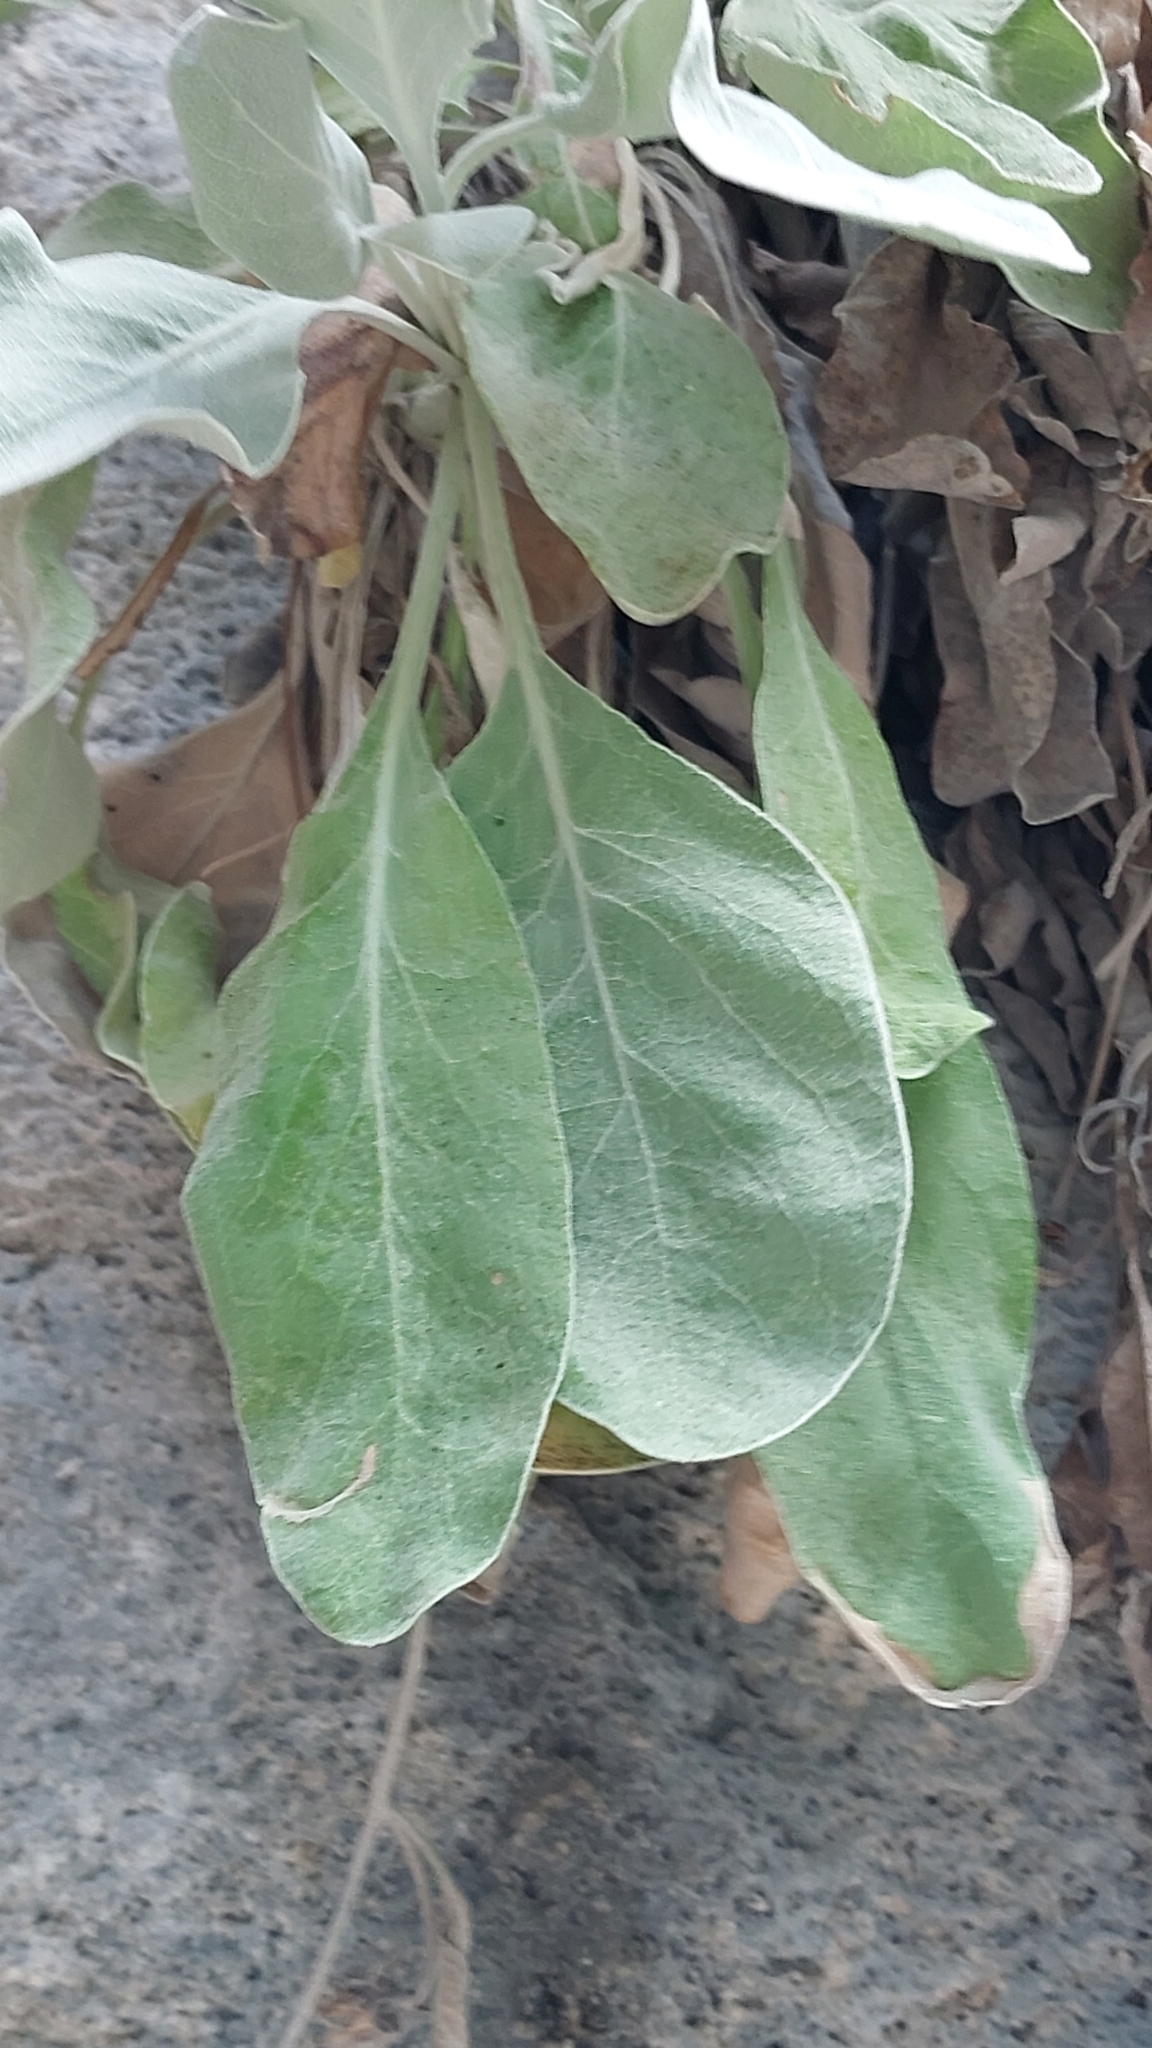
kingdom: Plantae
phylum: Tracheophyta
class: Magnoliopsida
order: Asterales
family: Asteraceae
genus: Staehelina
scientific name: Staehelina petiolata
